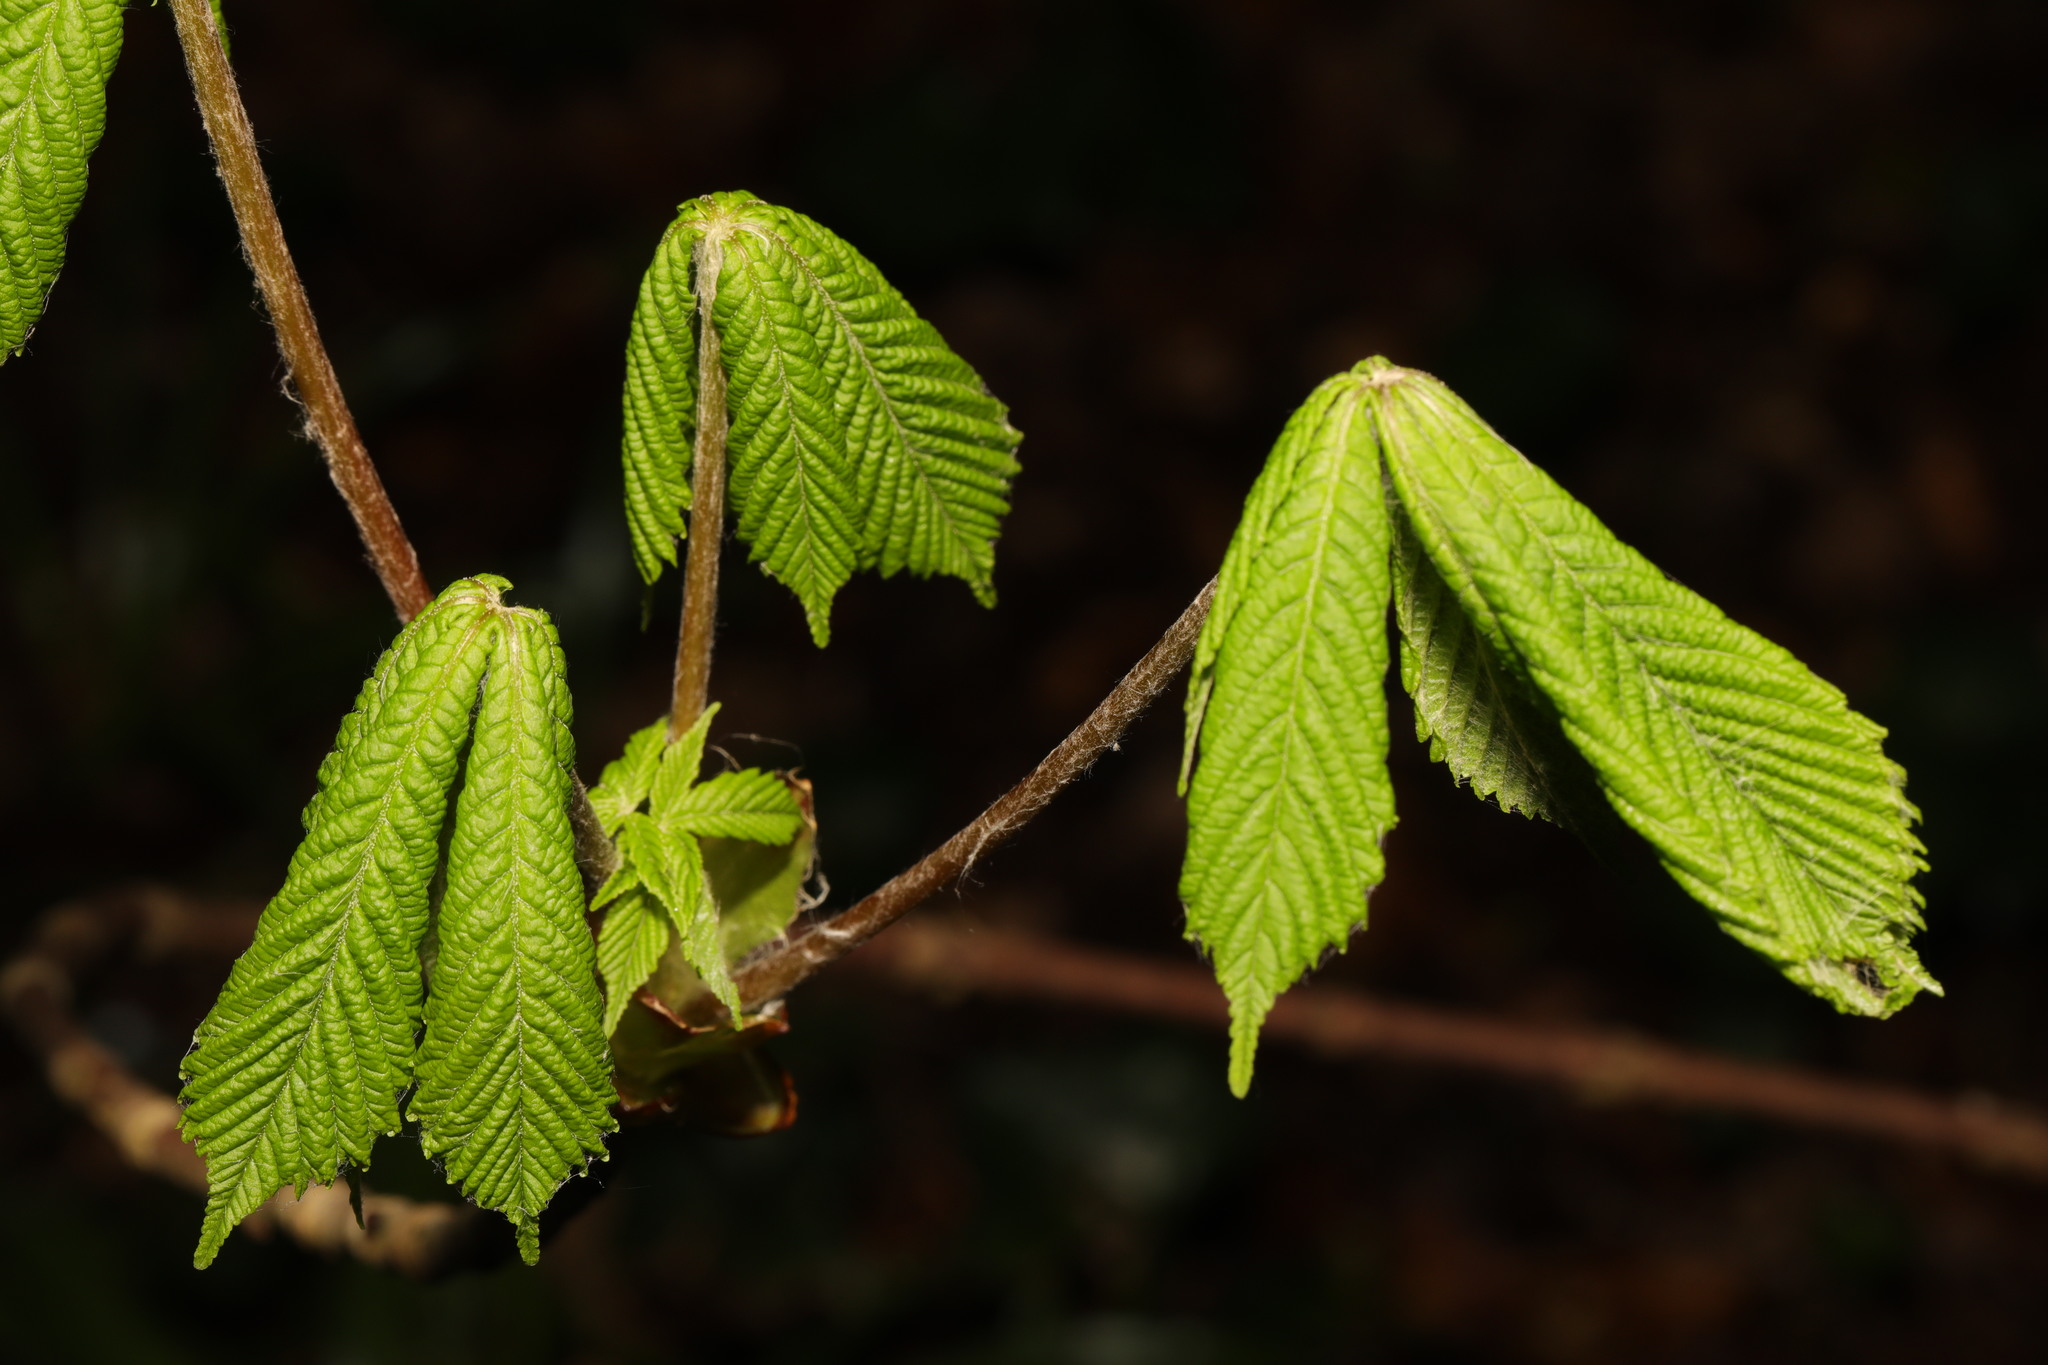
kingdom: Plantae
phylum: Tracheophyta
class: Magnoliopsida
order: Sapindales
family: Sapindaceae
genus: Aesculus
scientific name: Aesculus hippocastanum
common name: Horse-chestnut
